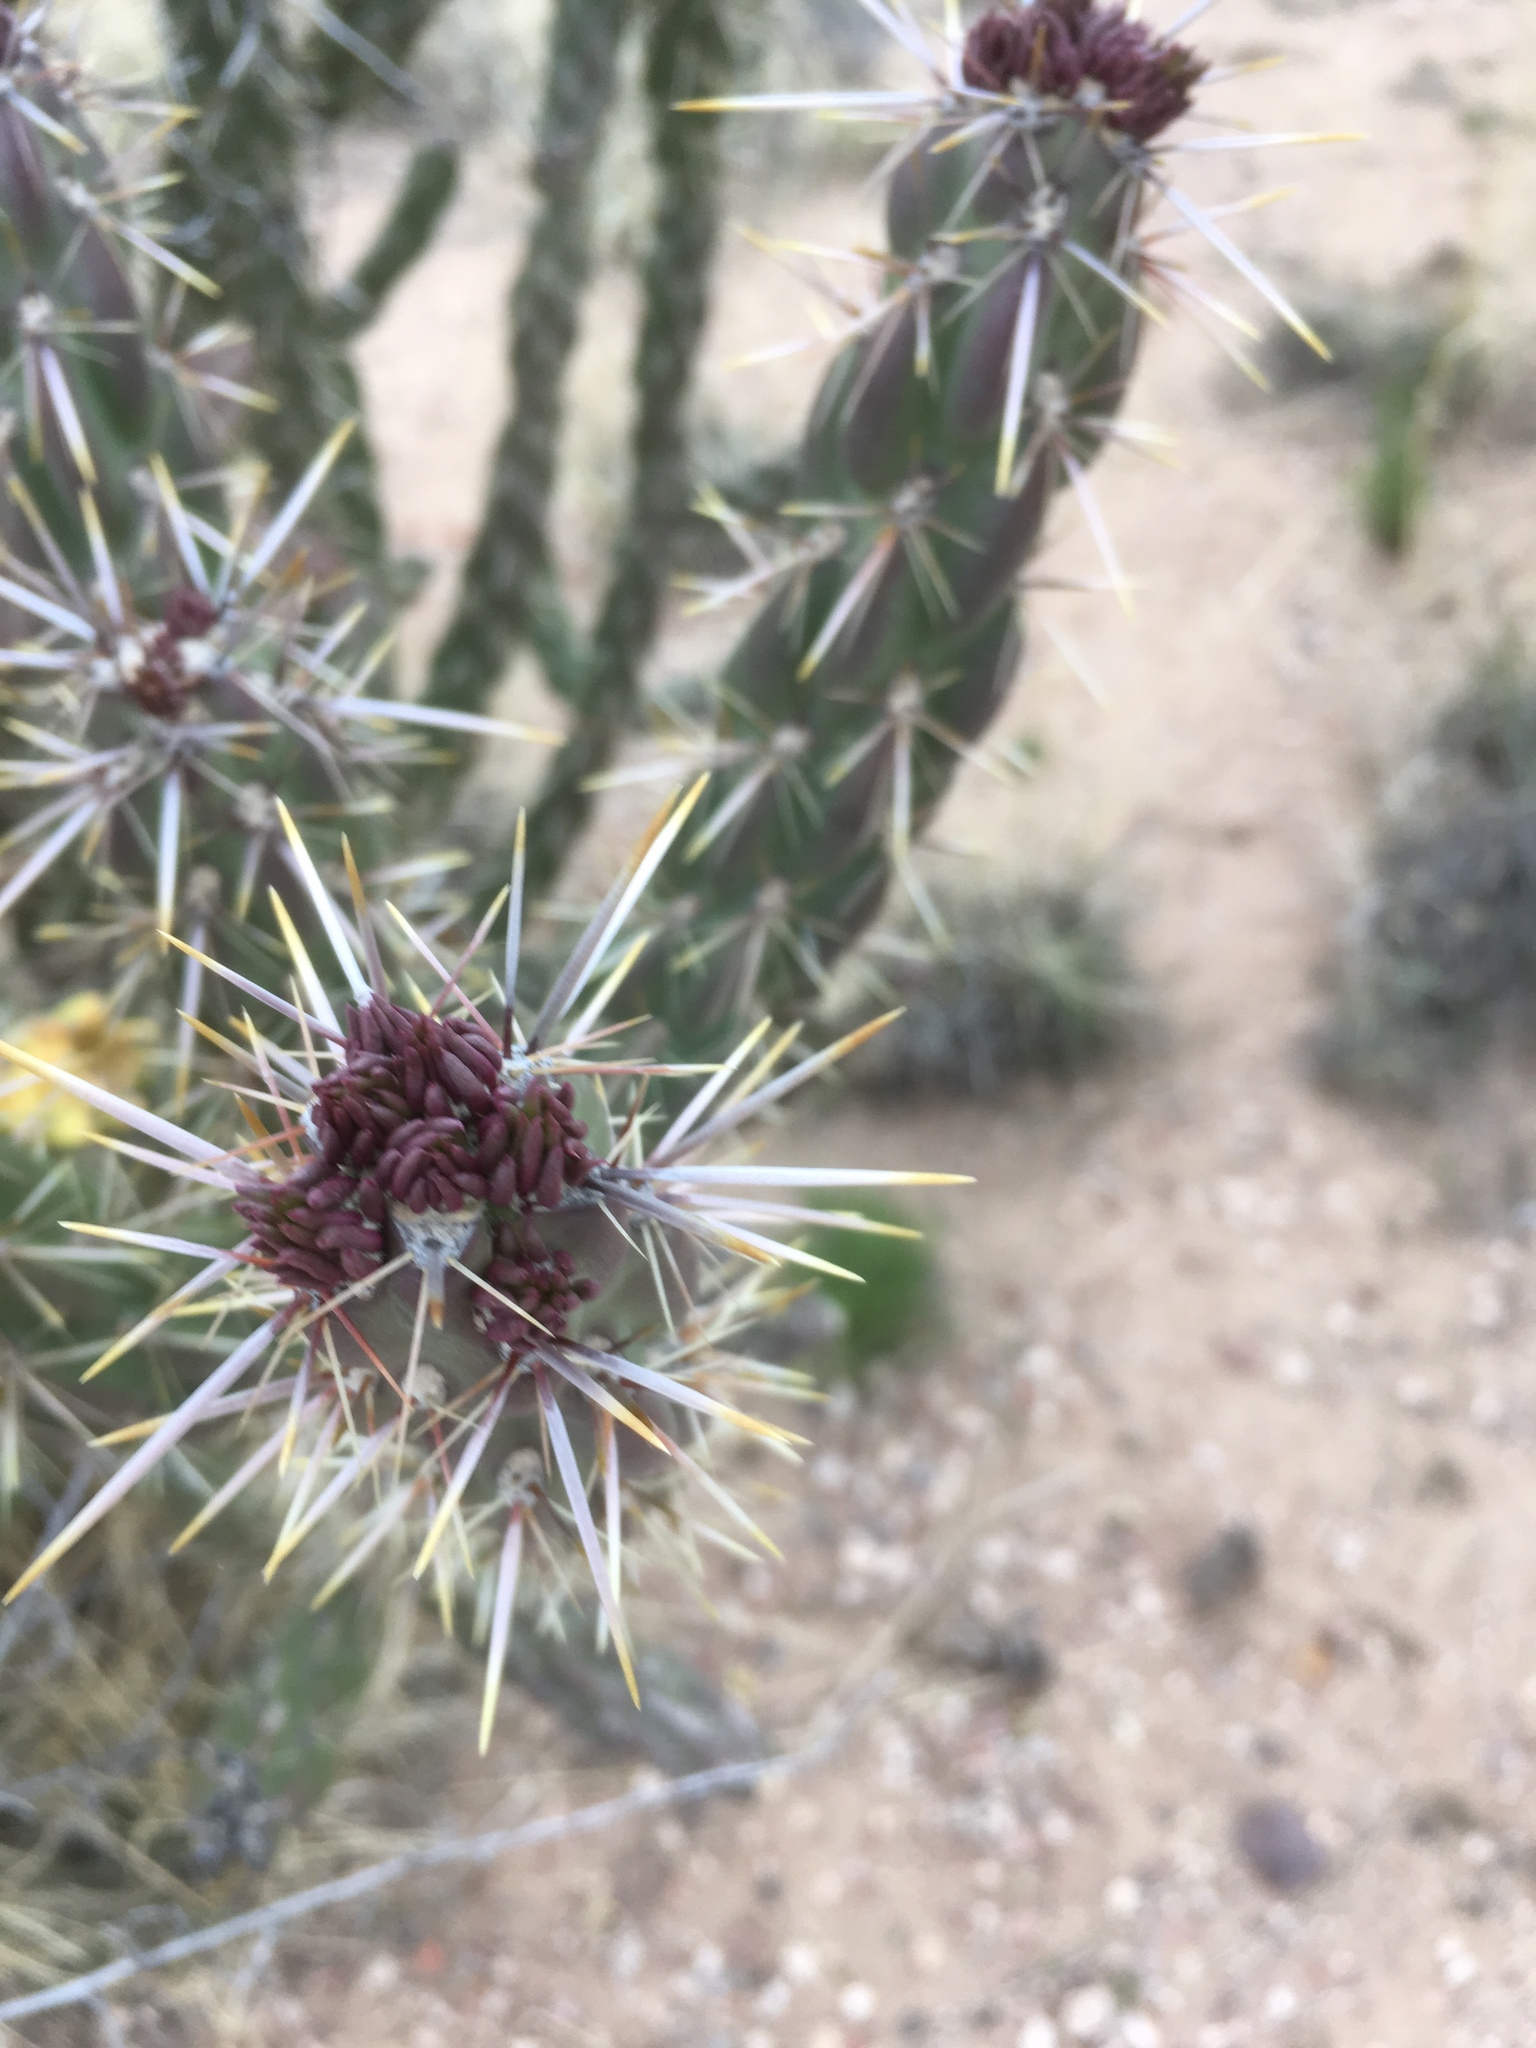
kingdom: Plantae
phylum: Tracheophyta
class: Magnoliopsida
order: Caryophyllales
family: Cactaceae
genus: Cylindropuntia
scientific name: Cylindropuntia imbricata
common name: Candelabrum cactus
